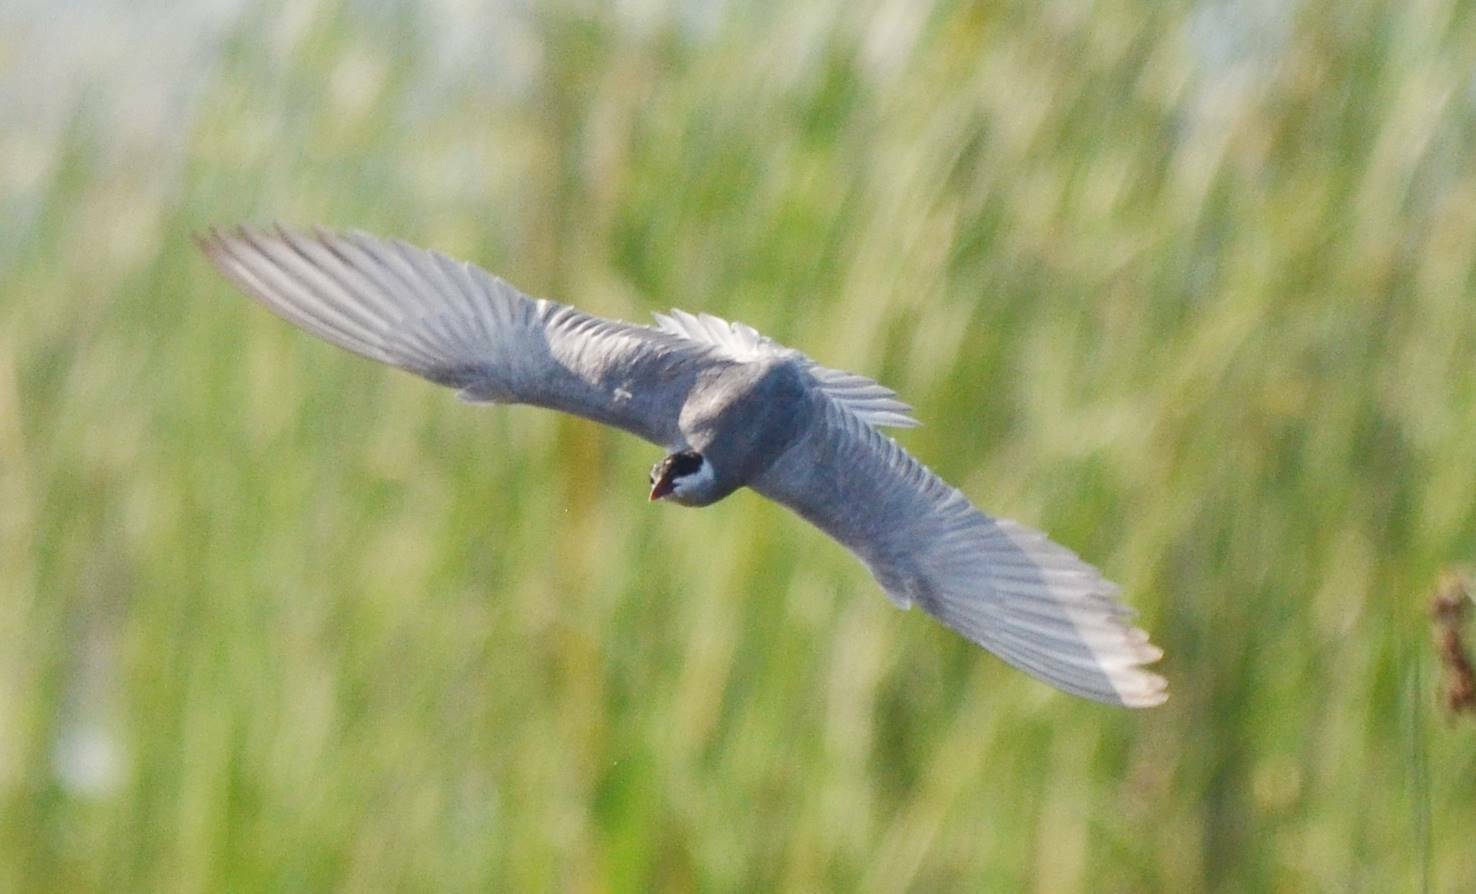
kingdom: Animalia
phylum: Chordata
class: Aves
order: Charadriiformes
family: Laridae
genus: Chlidonias
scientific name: Chlidonias hybrida
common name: Whiskered tern
